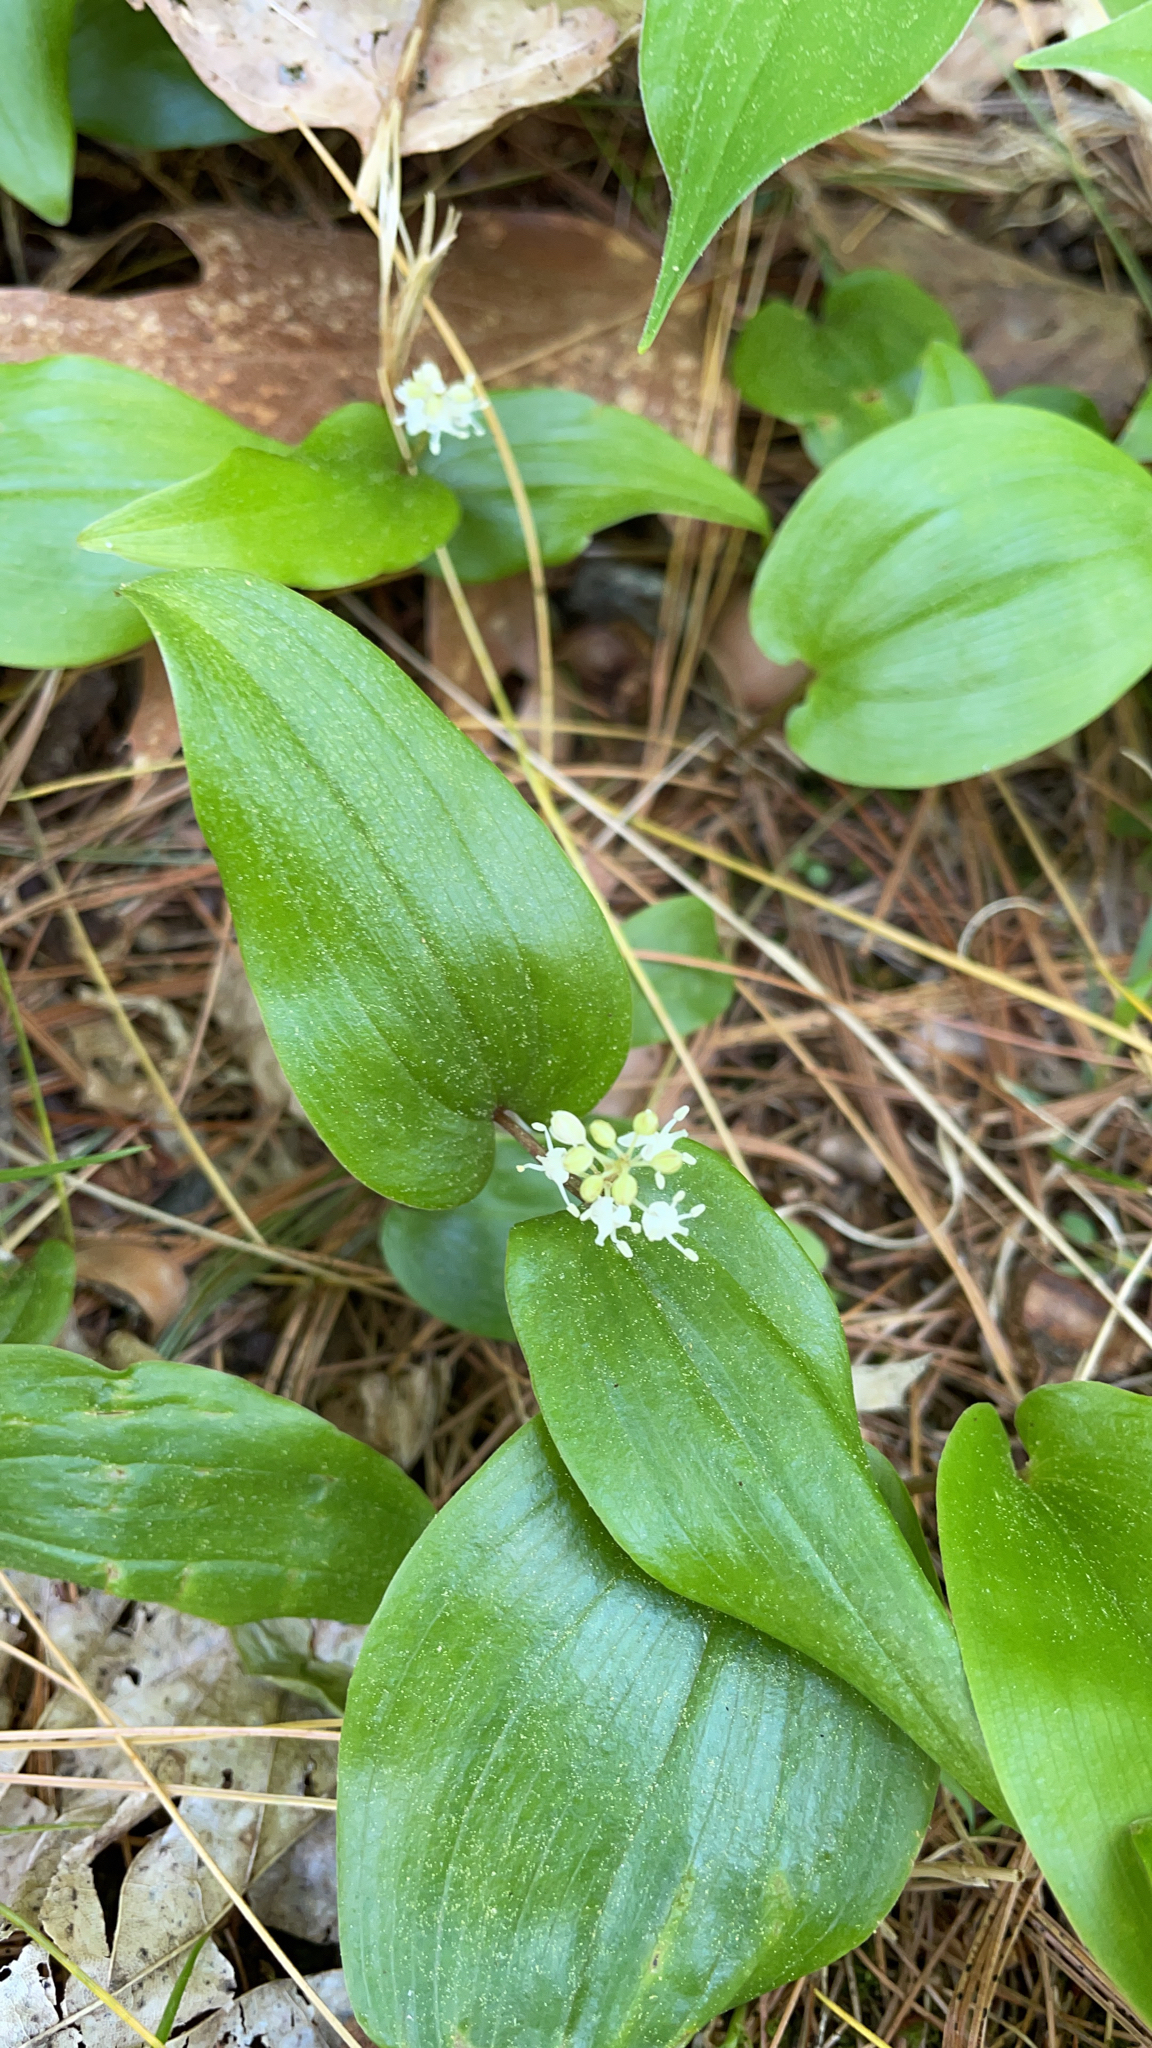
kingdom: Plantae
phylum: Tracheophyta
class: Liliopsida
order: Asparagales
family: Asparagaceae
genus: Maianthemum
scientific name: Maianthemum canadense
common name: False lily-of-the-valley
